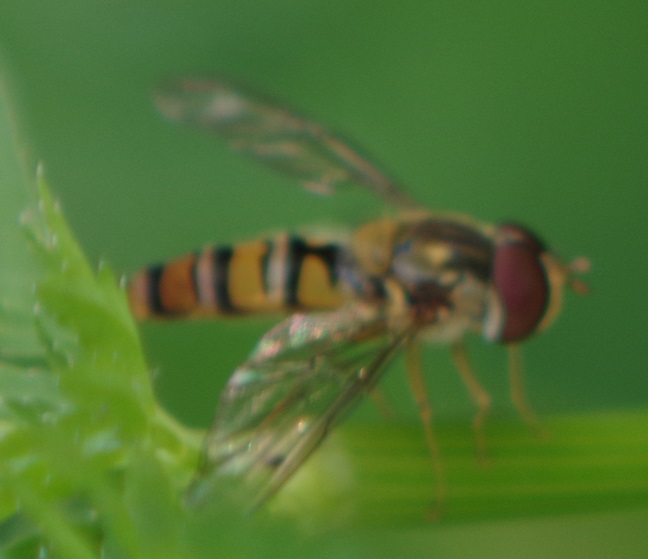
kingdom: Animalia
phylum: Arthropoda
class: Insecta
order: Diptera
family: Syrphidae
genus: Episyrphus
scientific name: Episyrphus balteatus
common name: Marmalade hoverfly
